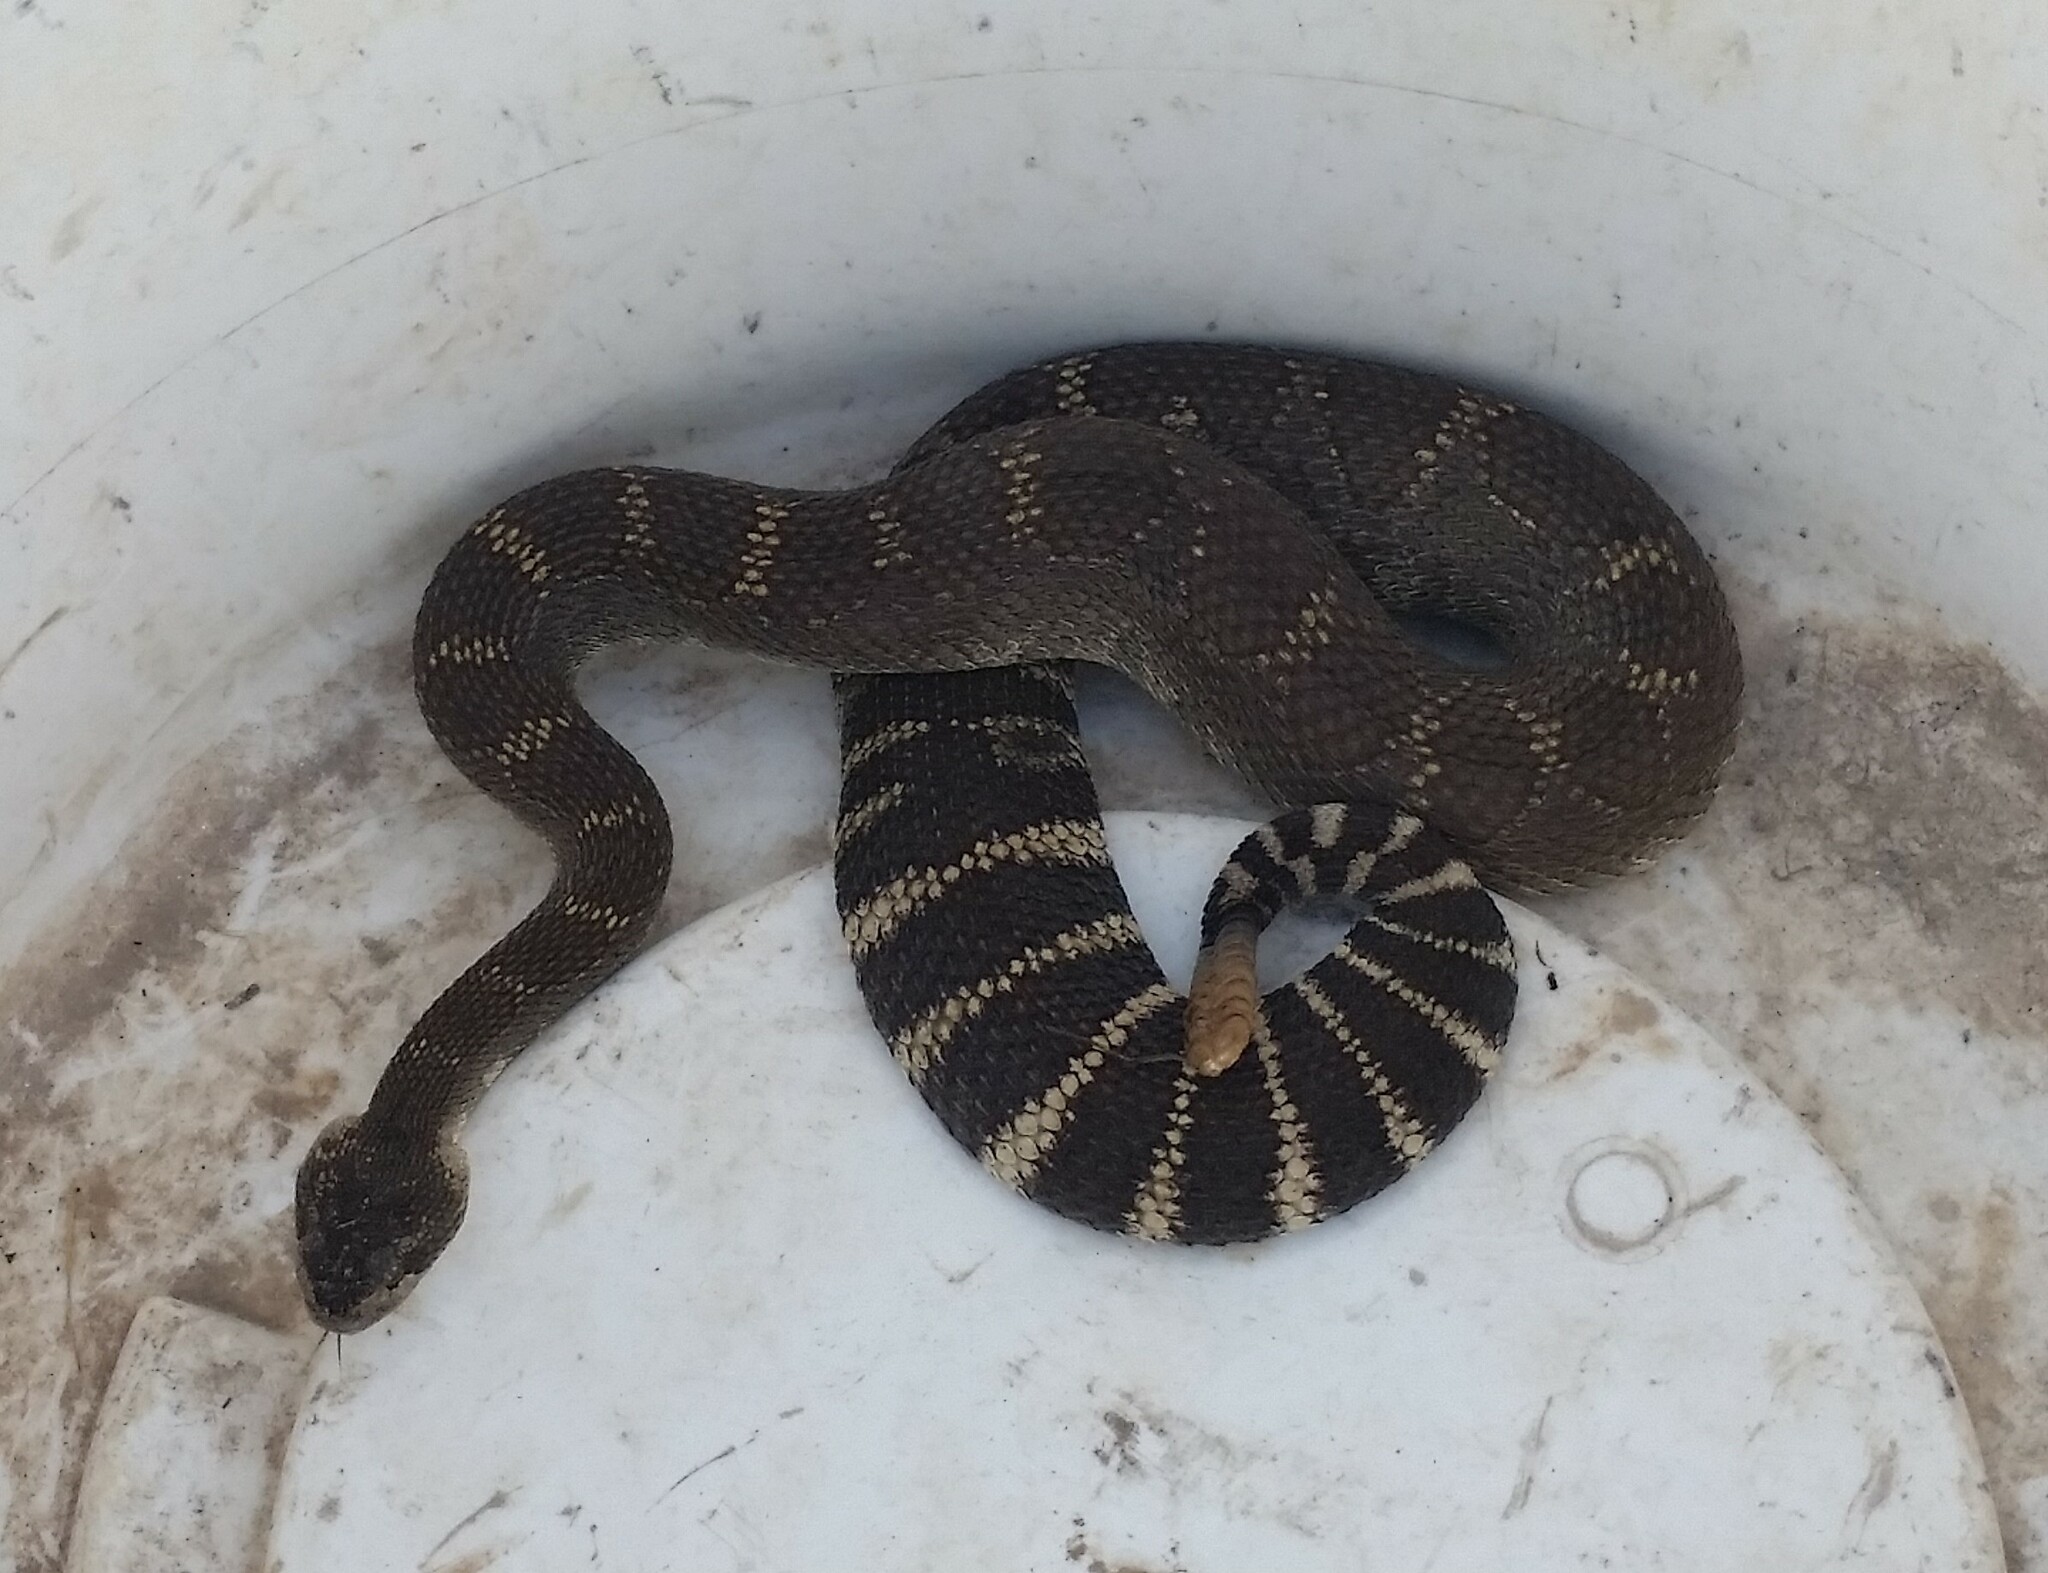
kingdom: Animalia
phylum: Chordata
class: Squamata
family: Viperidae
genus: Crotalus
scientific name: Crotalus oreganus
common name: Abyssus
